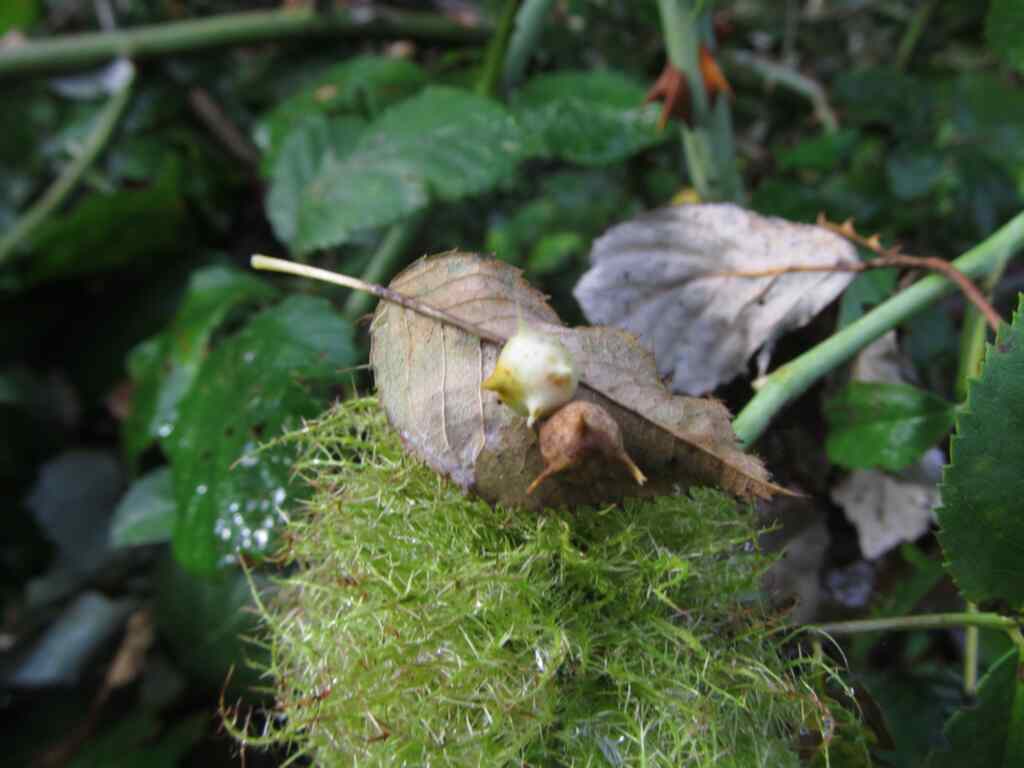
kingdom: Animalia
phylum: Arthropoda
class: Insecta
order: Hymenoptera
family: Cynipidae
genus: Diplolepis
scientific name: Diplolepis nervosa
